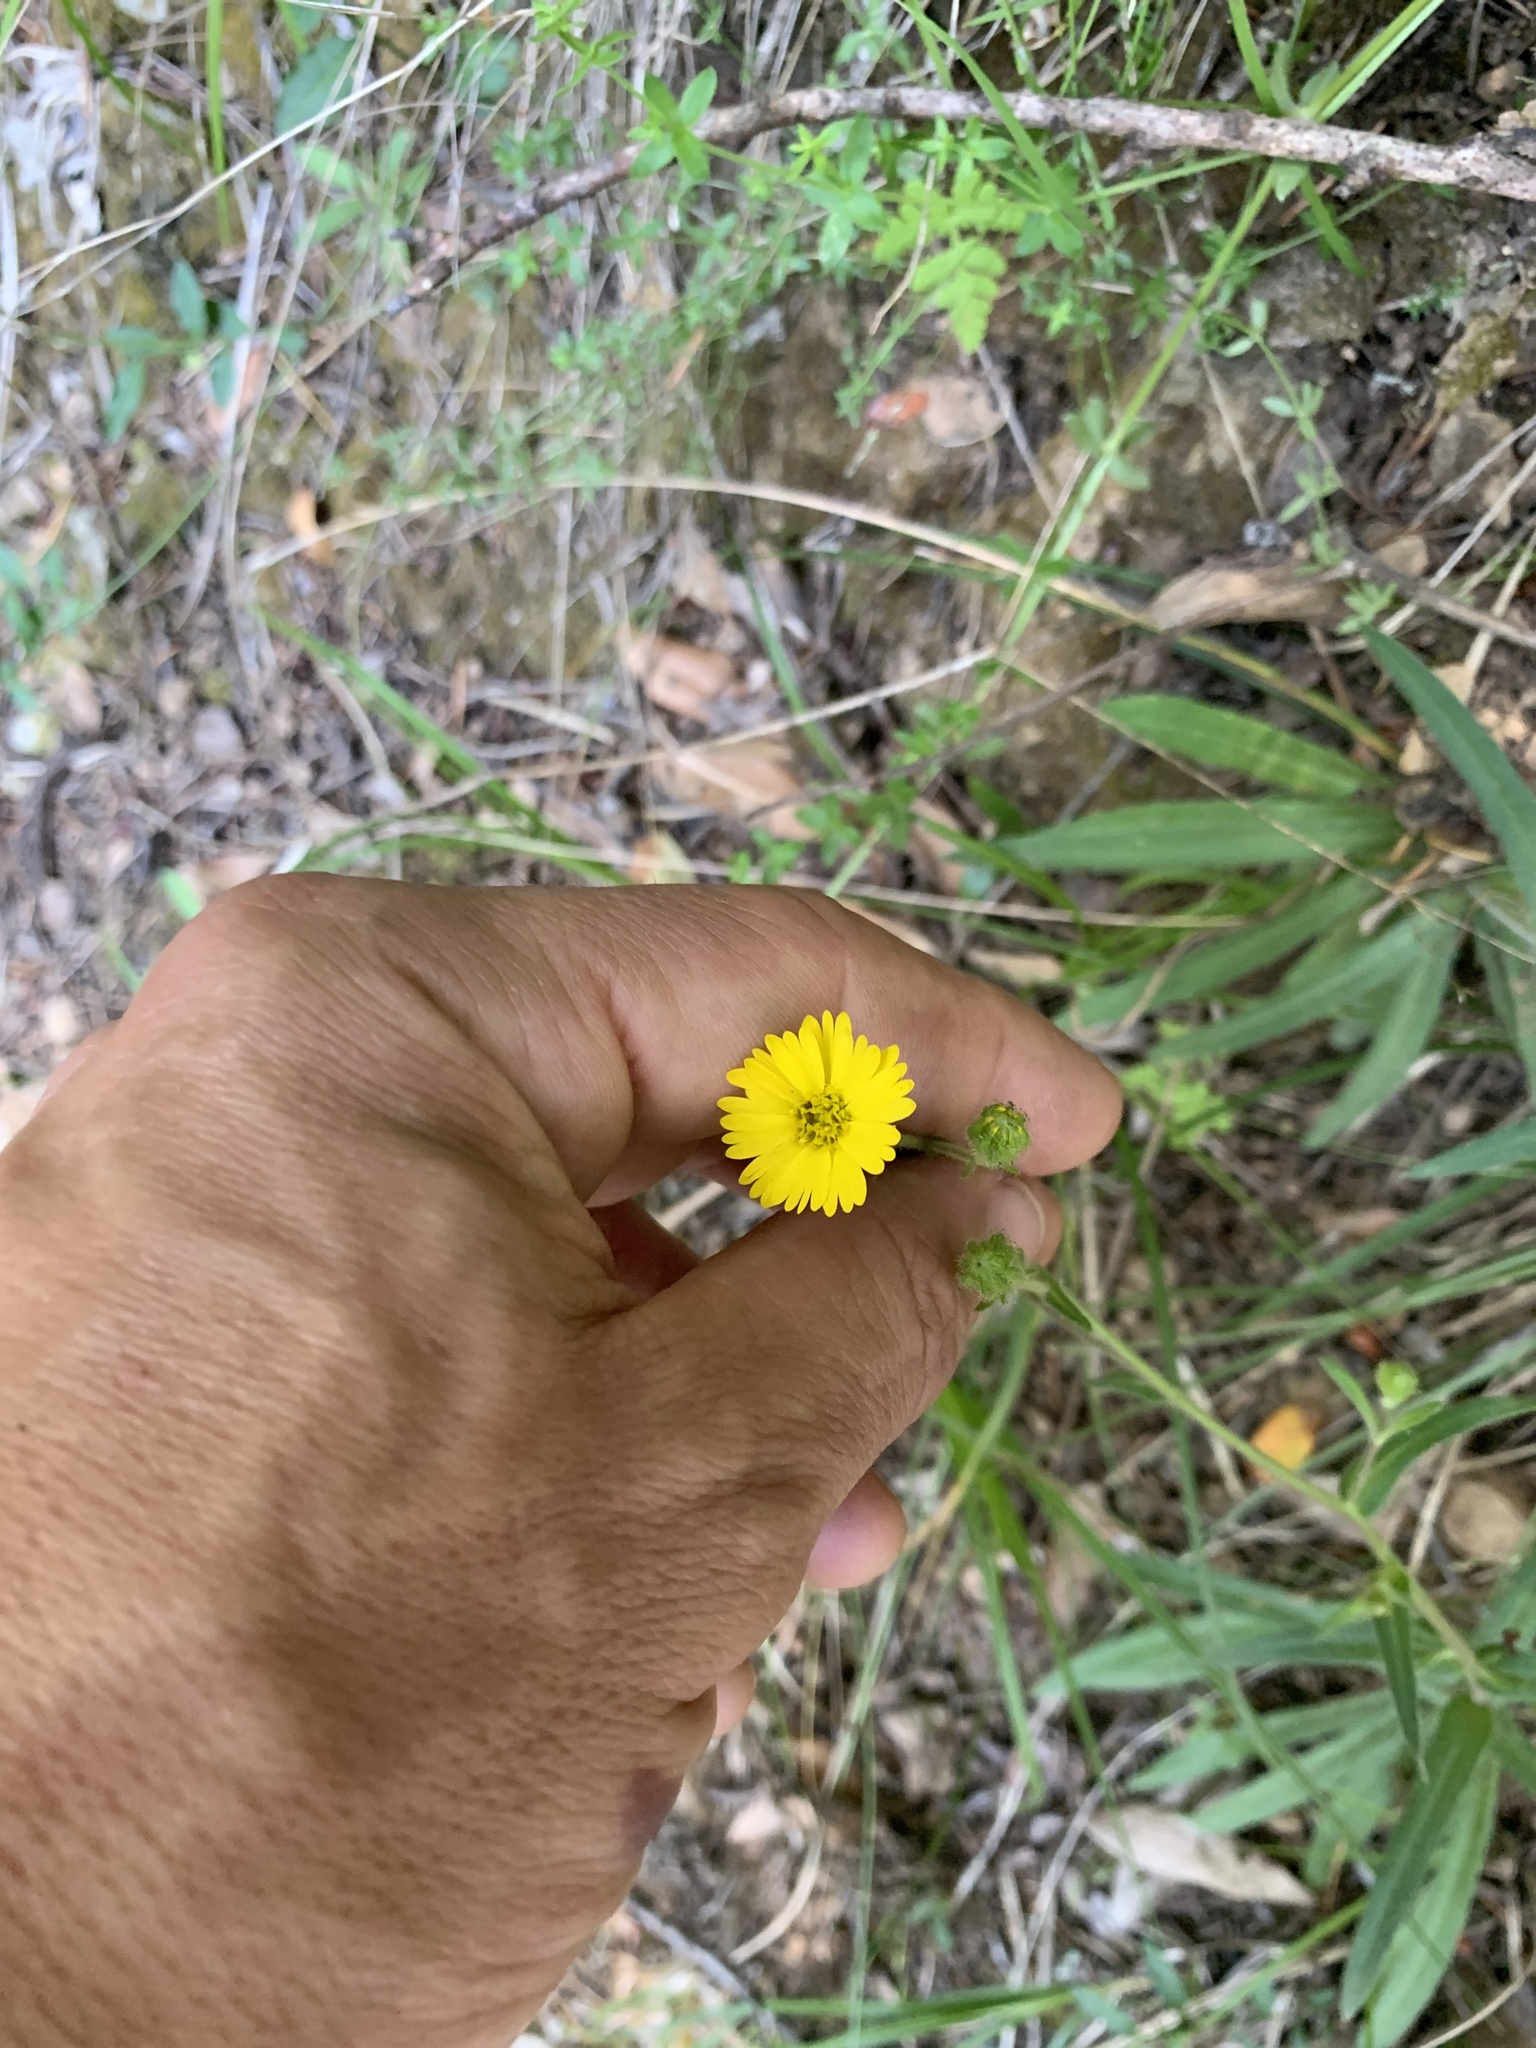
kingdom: Plantae
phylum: Tracheophyta
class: Magnoliopsida
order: Asterales
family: Asteraceae
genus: Anisocarpus
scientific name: Anisocarpus madioides
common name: Woodland madia
